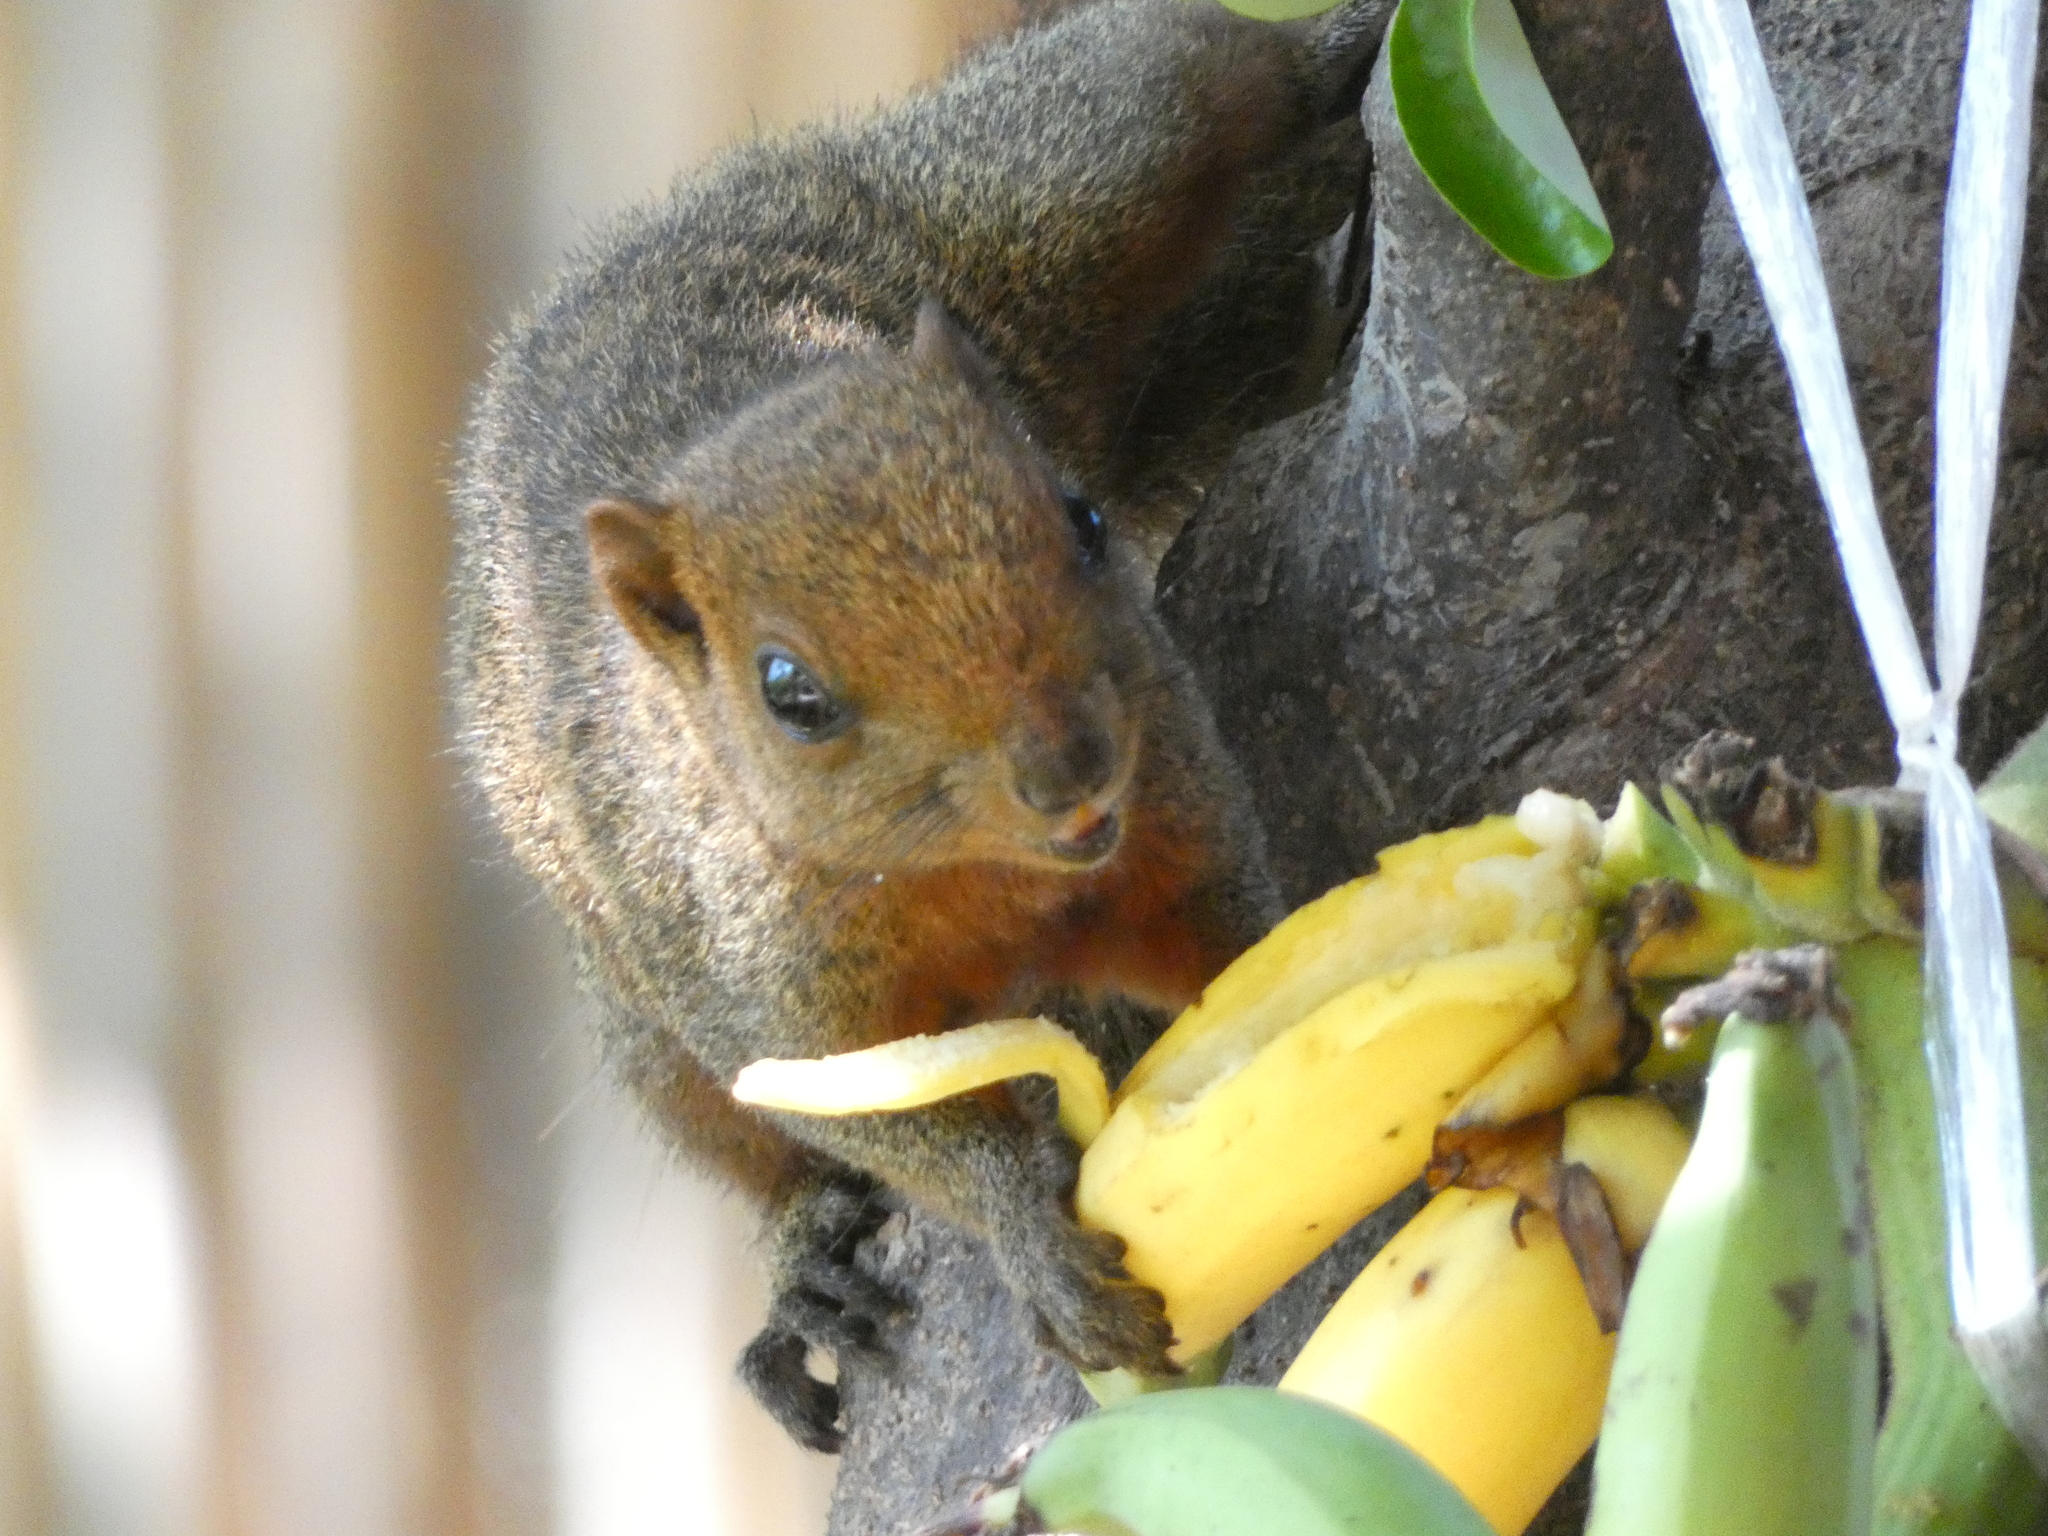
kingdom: Animalia
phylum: Chordata
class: Mammalia
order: Rodentia
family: Sciuridae
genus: Callosciurus
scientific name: Callosciurus erythraeus
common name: Pallas's squirrel
